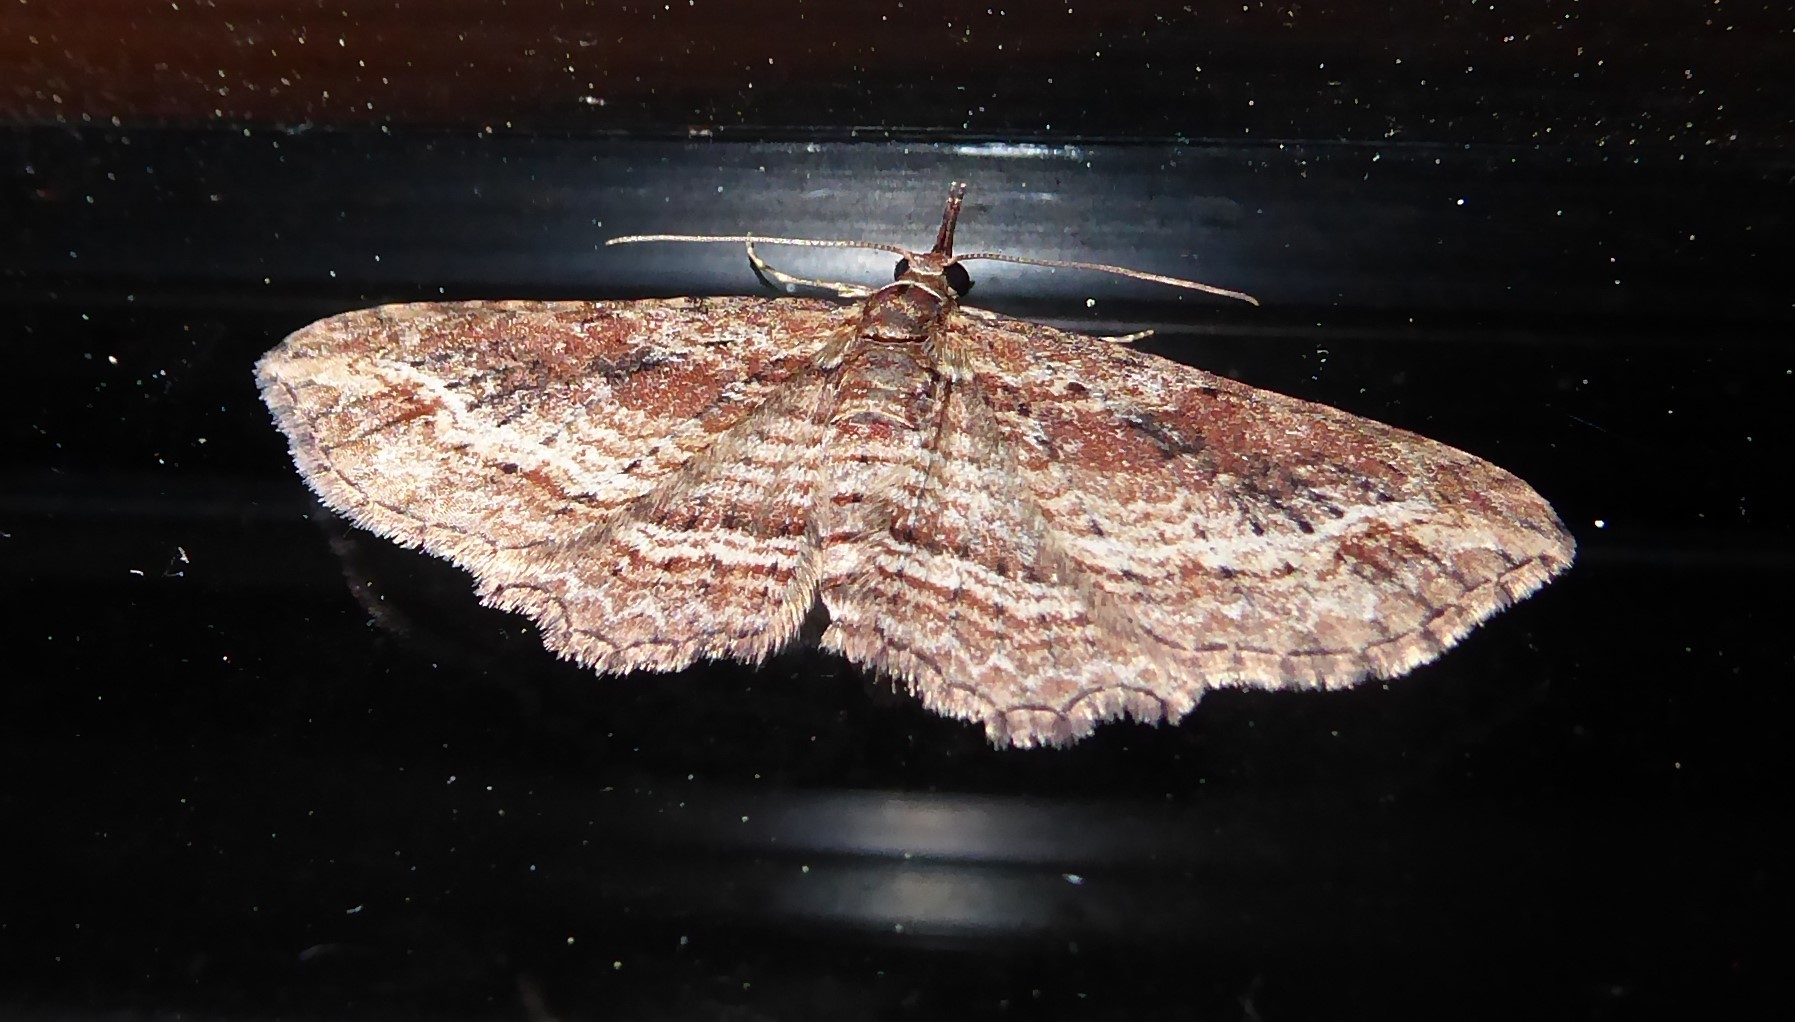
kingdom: Animalia
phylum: Arthropoda
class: Insecta
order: Lepidoptera
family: Geometridae
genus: Chloroclystis
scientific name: Chloroclystis filata
